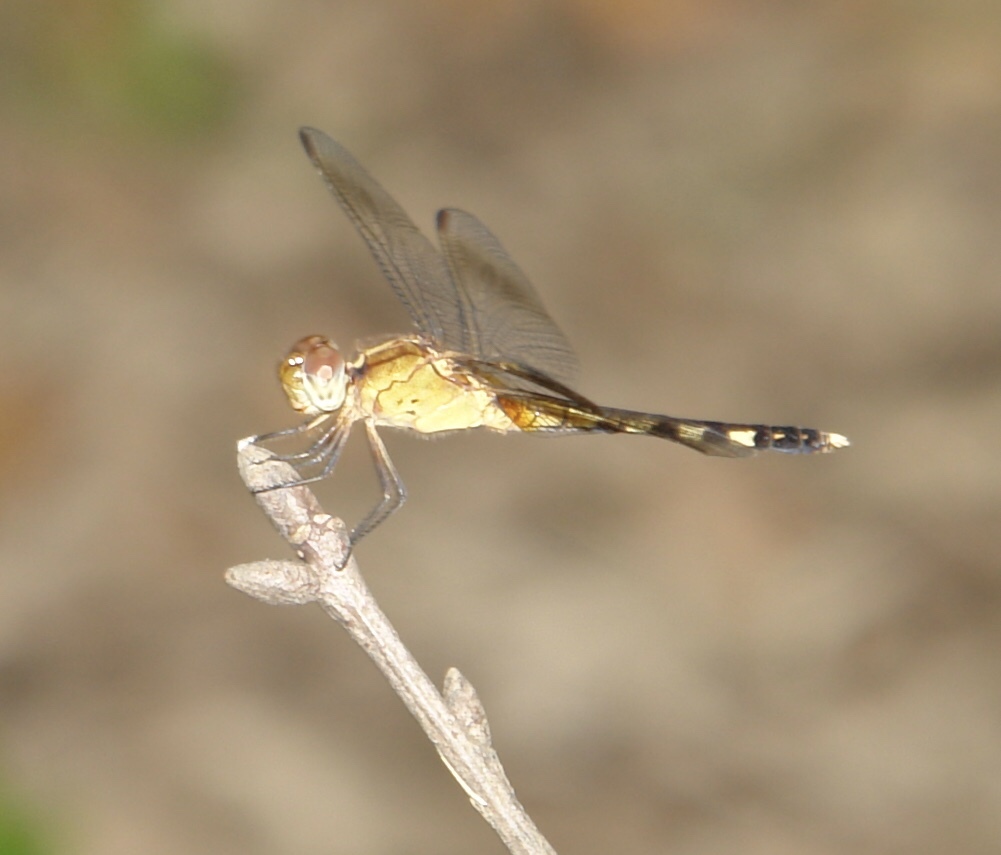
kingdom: Animalia
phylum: Arthropoda
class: Insecta
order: Odonata
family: Libellulidae
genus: Erythrodiplax
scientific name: Erythrodiplax umbrata
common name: Band-winged dragonlet
